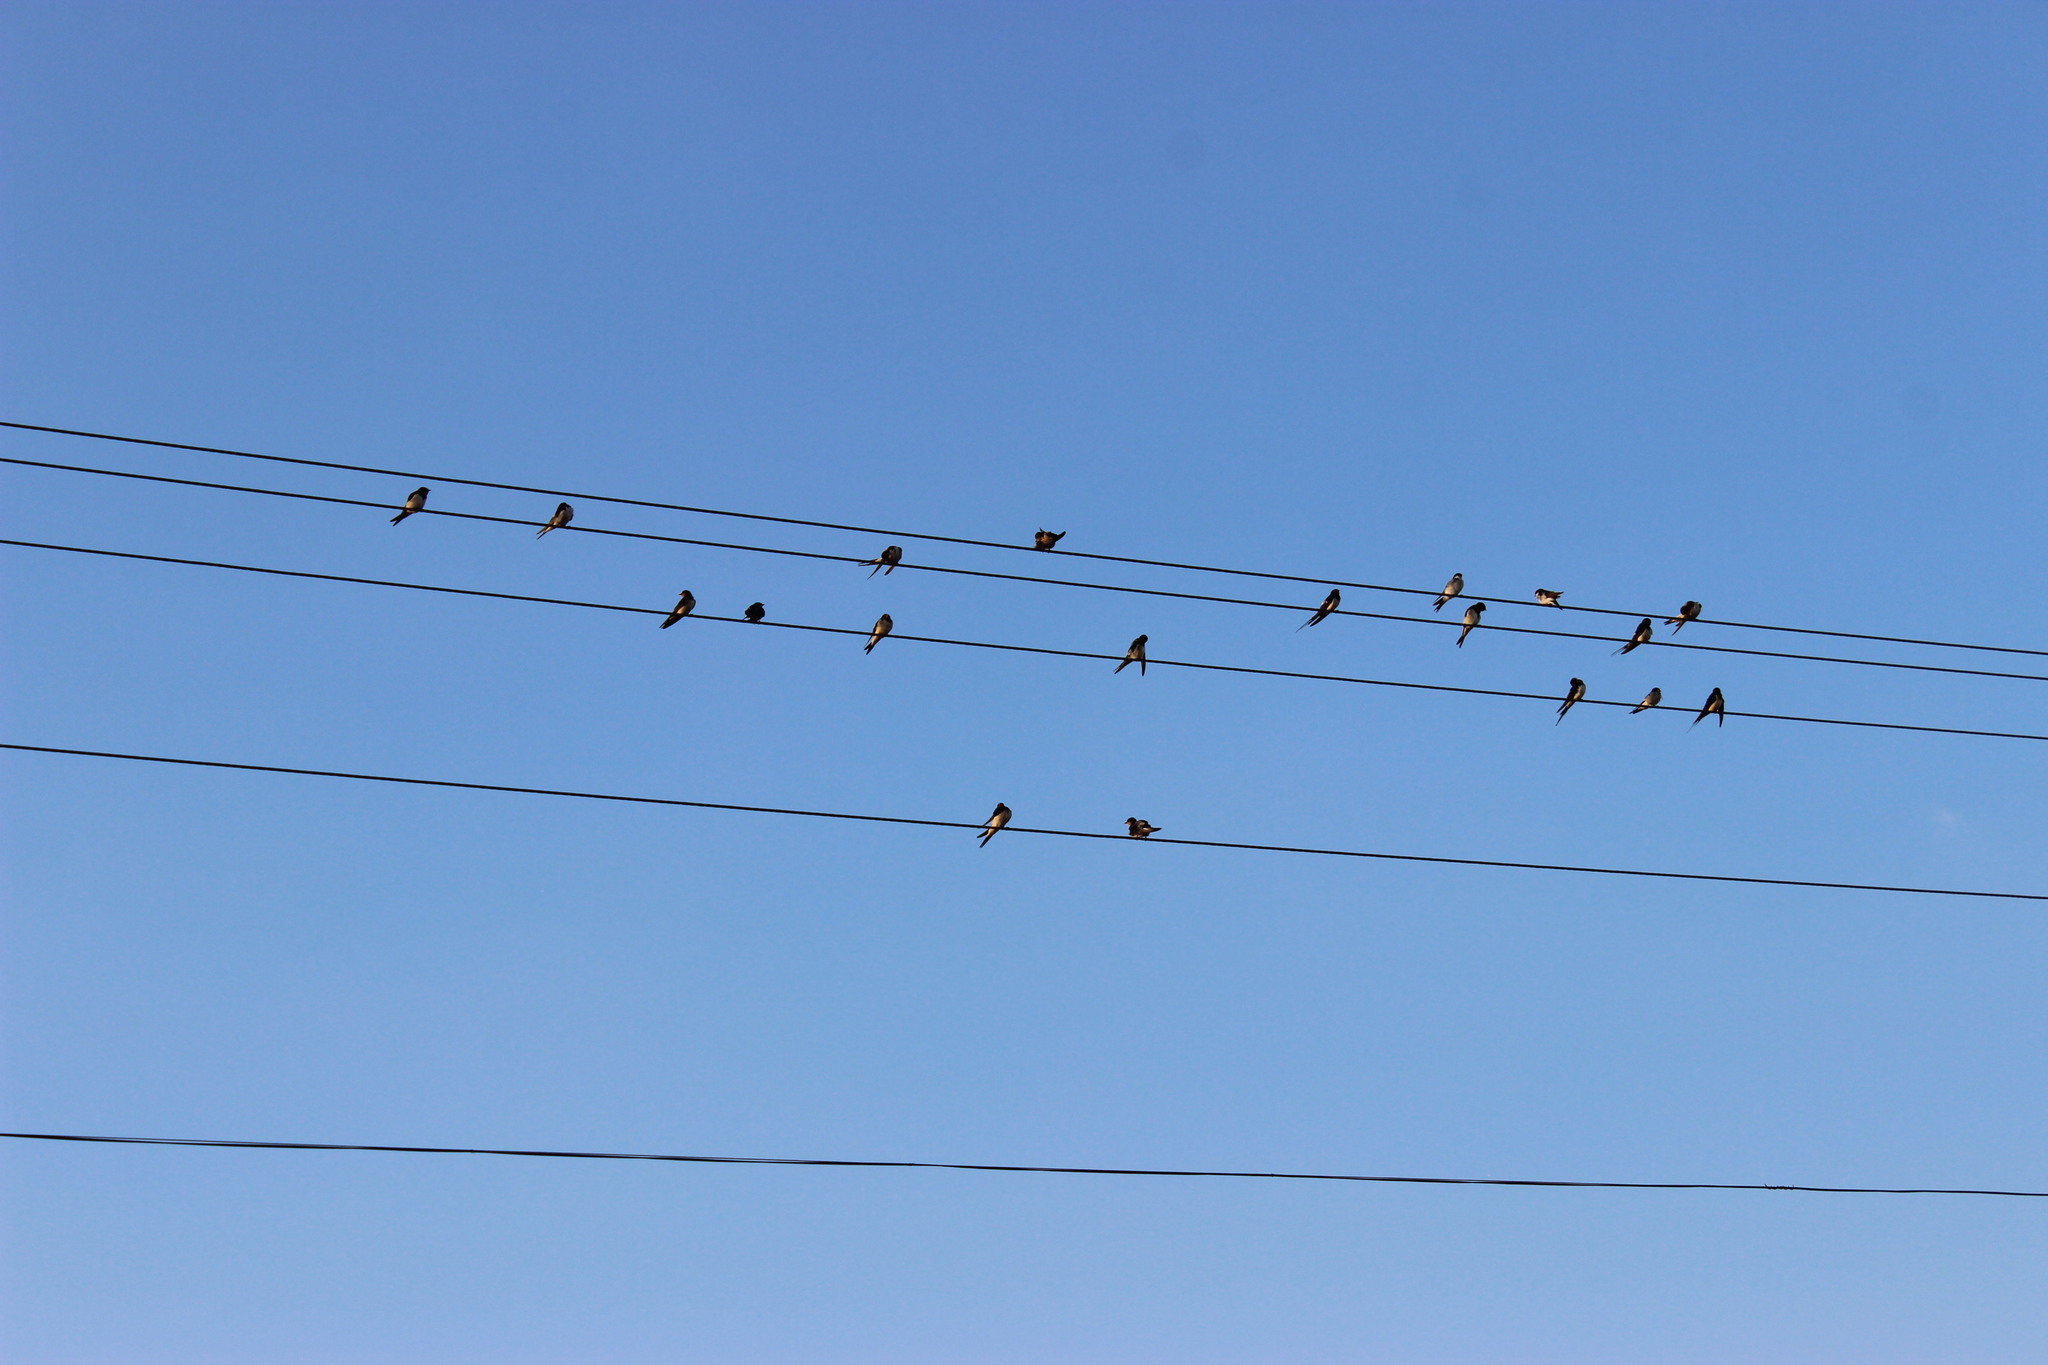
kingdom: Animalia
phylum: Chordata
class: Aves
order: Passeriformes
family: Hirundinidae
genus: Delichon
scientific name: Delichon urbicum
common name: Common house martin
